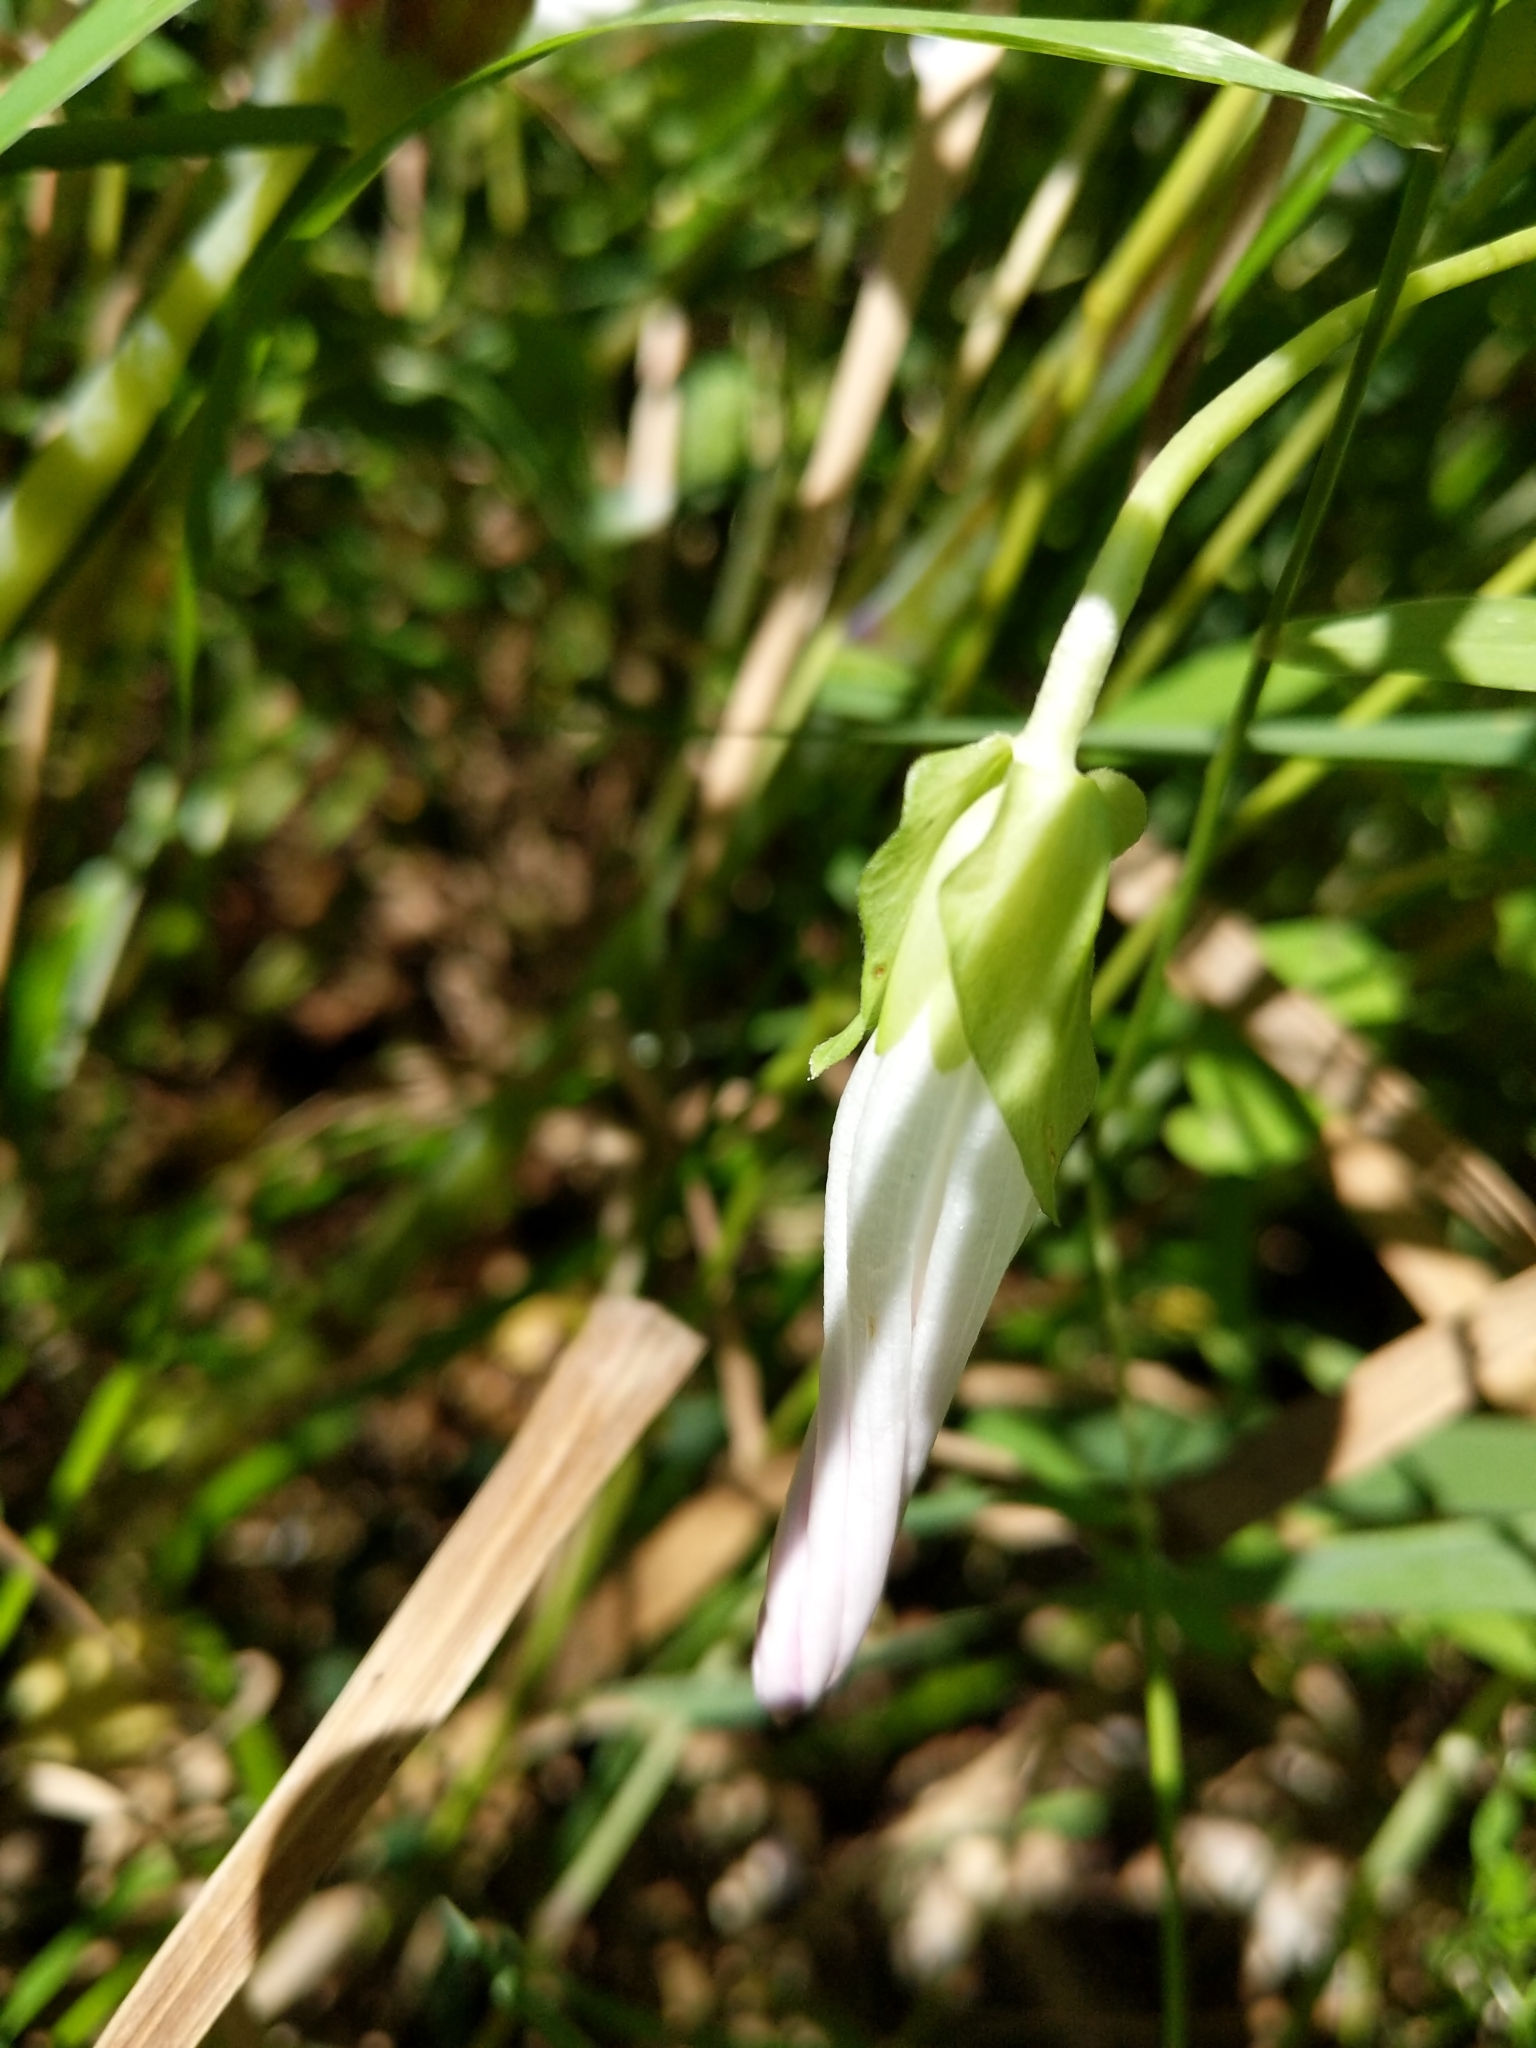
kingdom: Plantae
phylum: Tracheophyta
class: Magnoliopsida
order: Solanales
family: Convolvulaceae
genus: Calystegia
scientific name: Calystegia sepium
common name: Hedge bindweed
